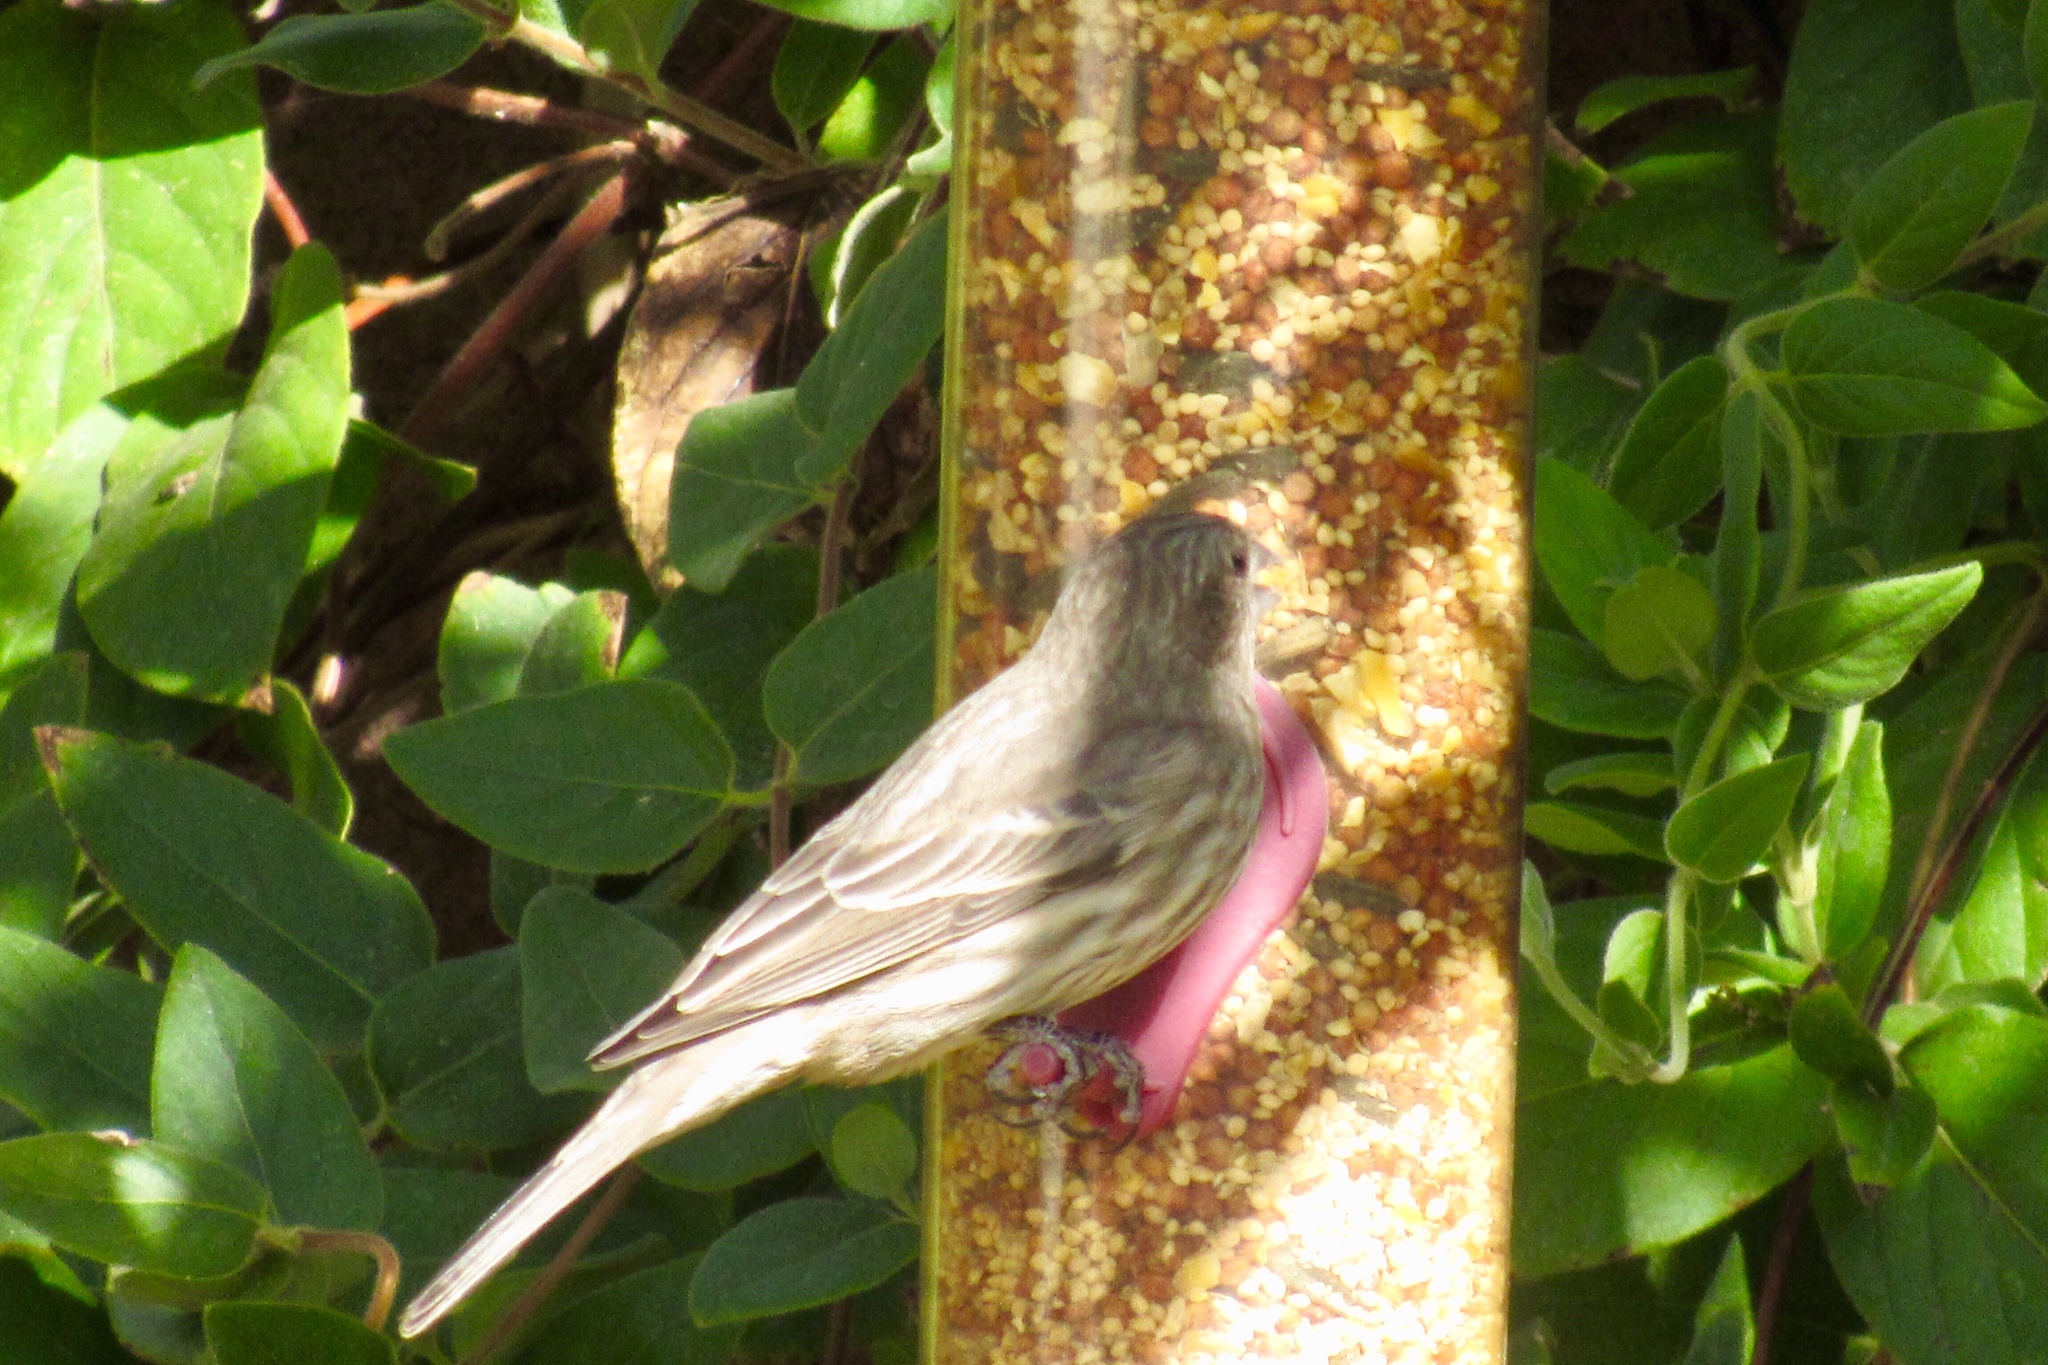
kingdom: Animalia
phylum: Chordata
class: Aves
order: Passeriformes
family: Fringillidae
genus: Haemorhous
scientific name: Haemorhous mexicanus
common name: House finch
